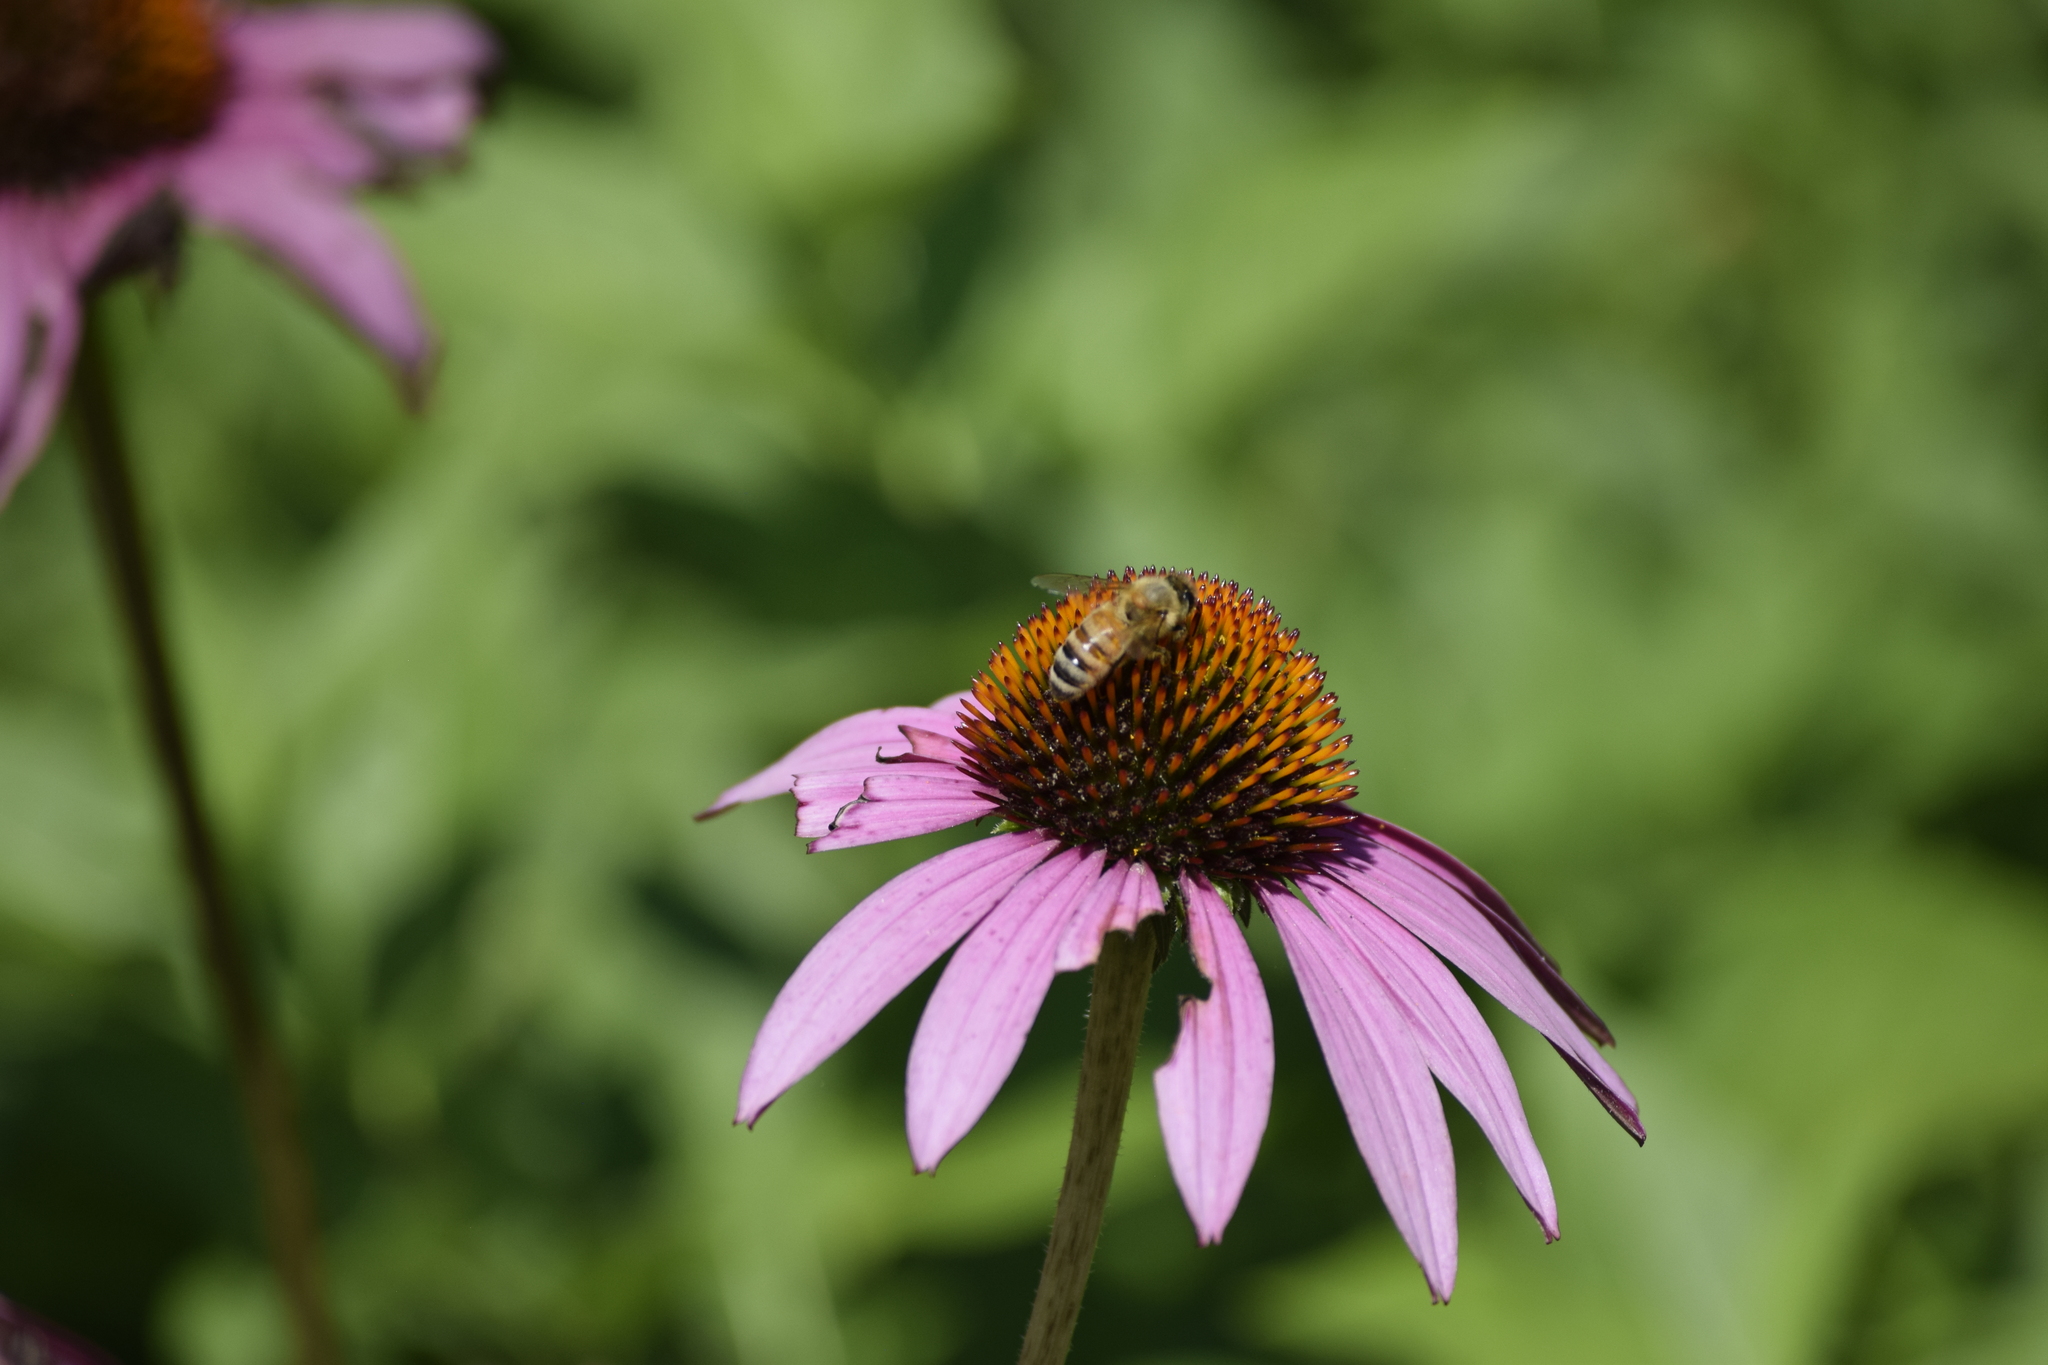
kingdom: Animalia
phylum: Arthropoda
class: Insecta
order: Hymenoptera
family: Apidae
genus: Apis
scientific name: Apis mellifera
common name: Honey bee
